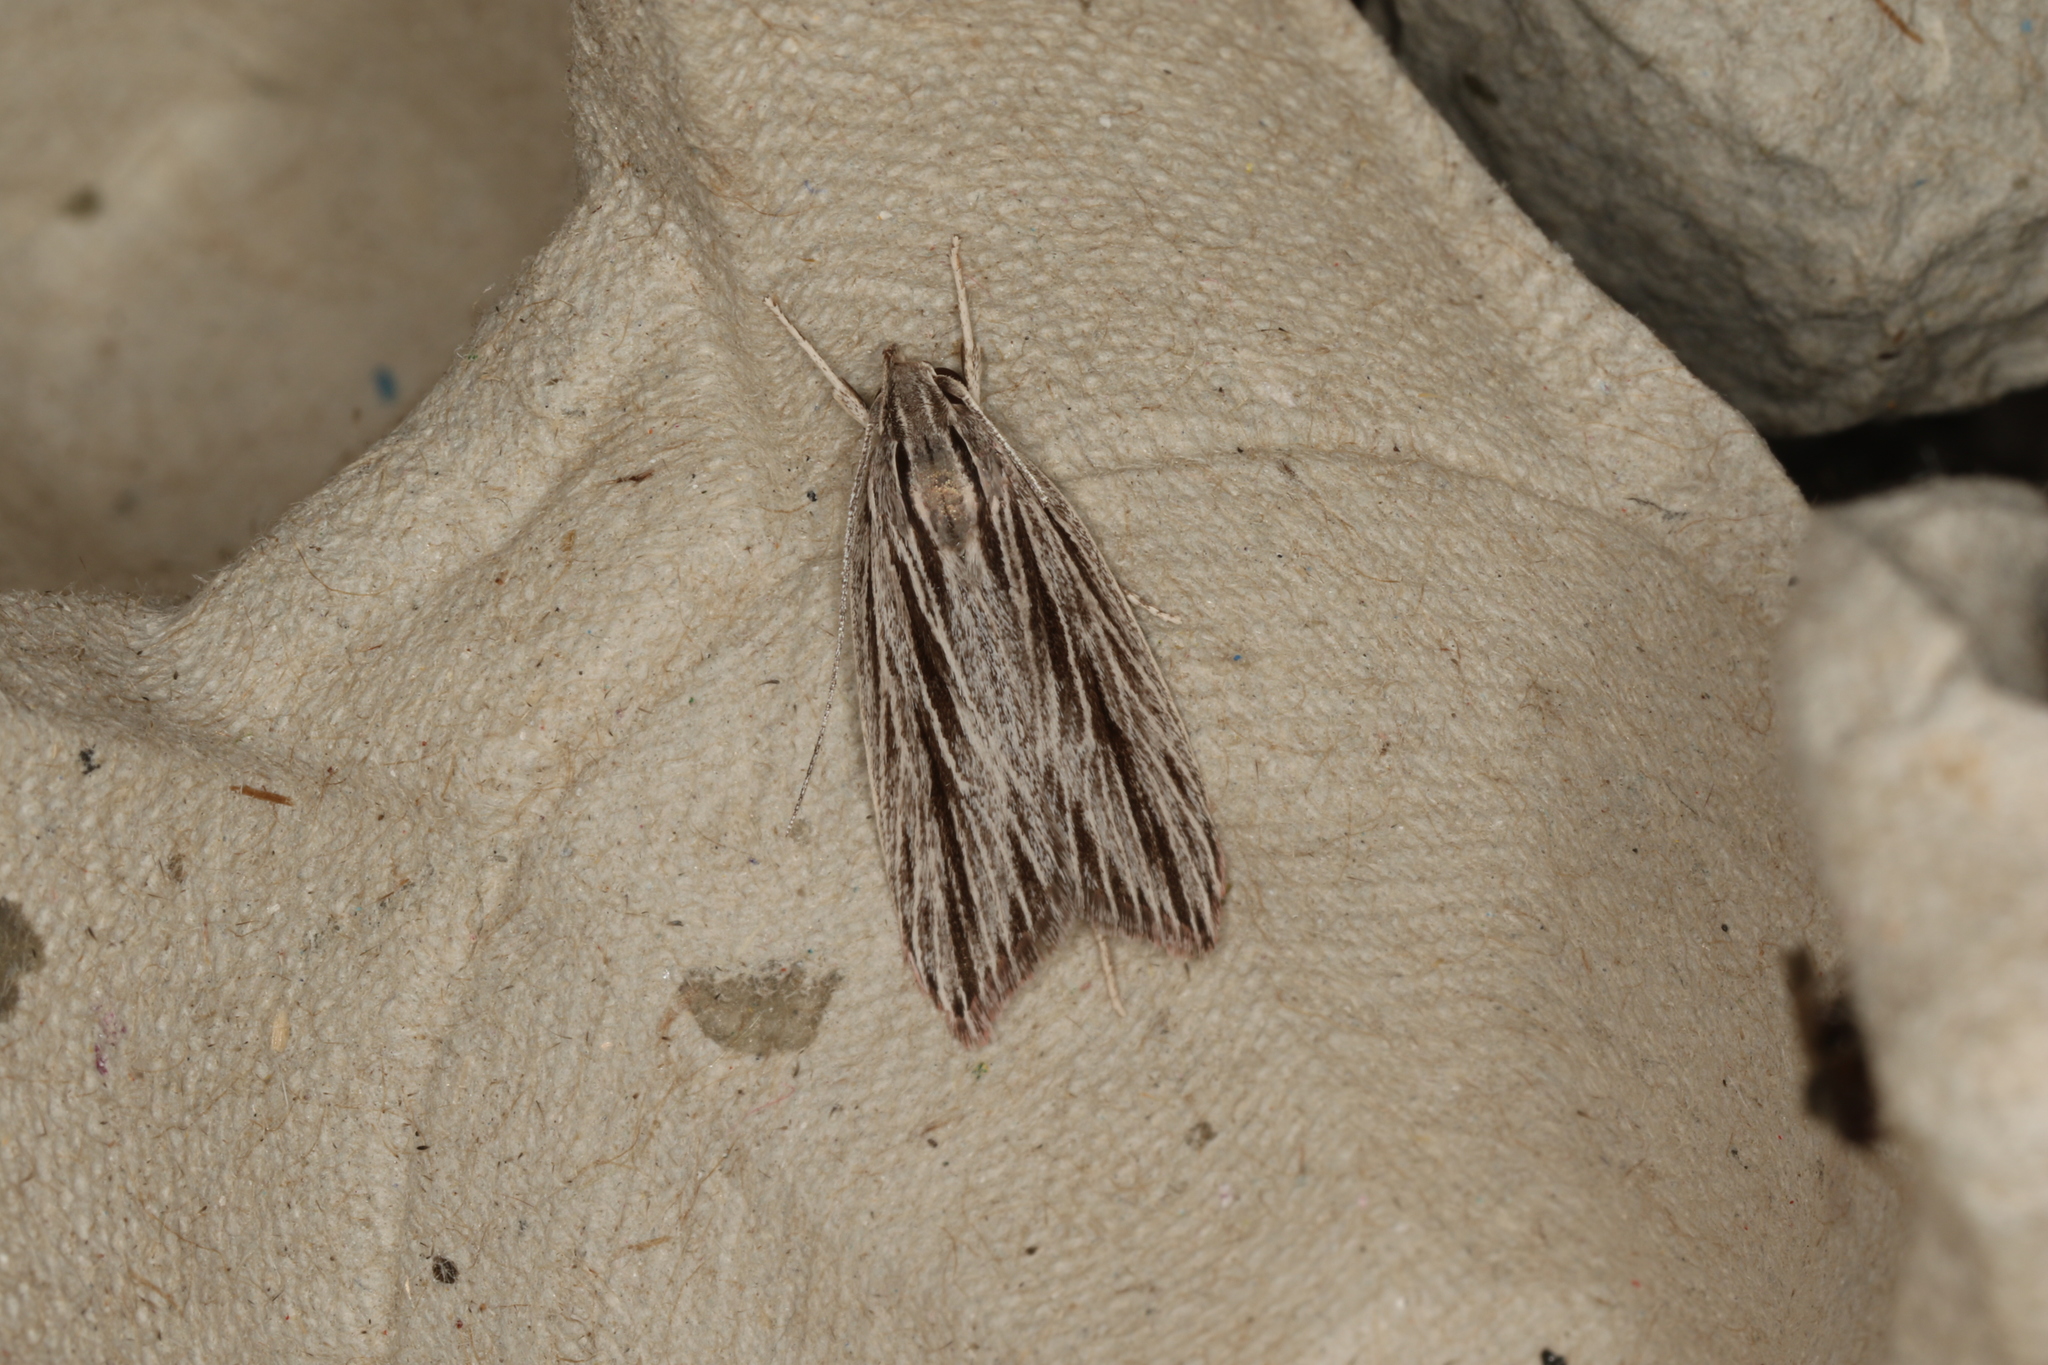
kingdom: Animalia
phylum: Arthropoda
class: Insecta
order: Lepidoptera
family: Xyloryctidae
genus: Leistarcha
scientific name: Leistarcha scitissimella
